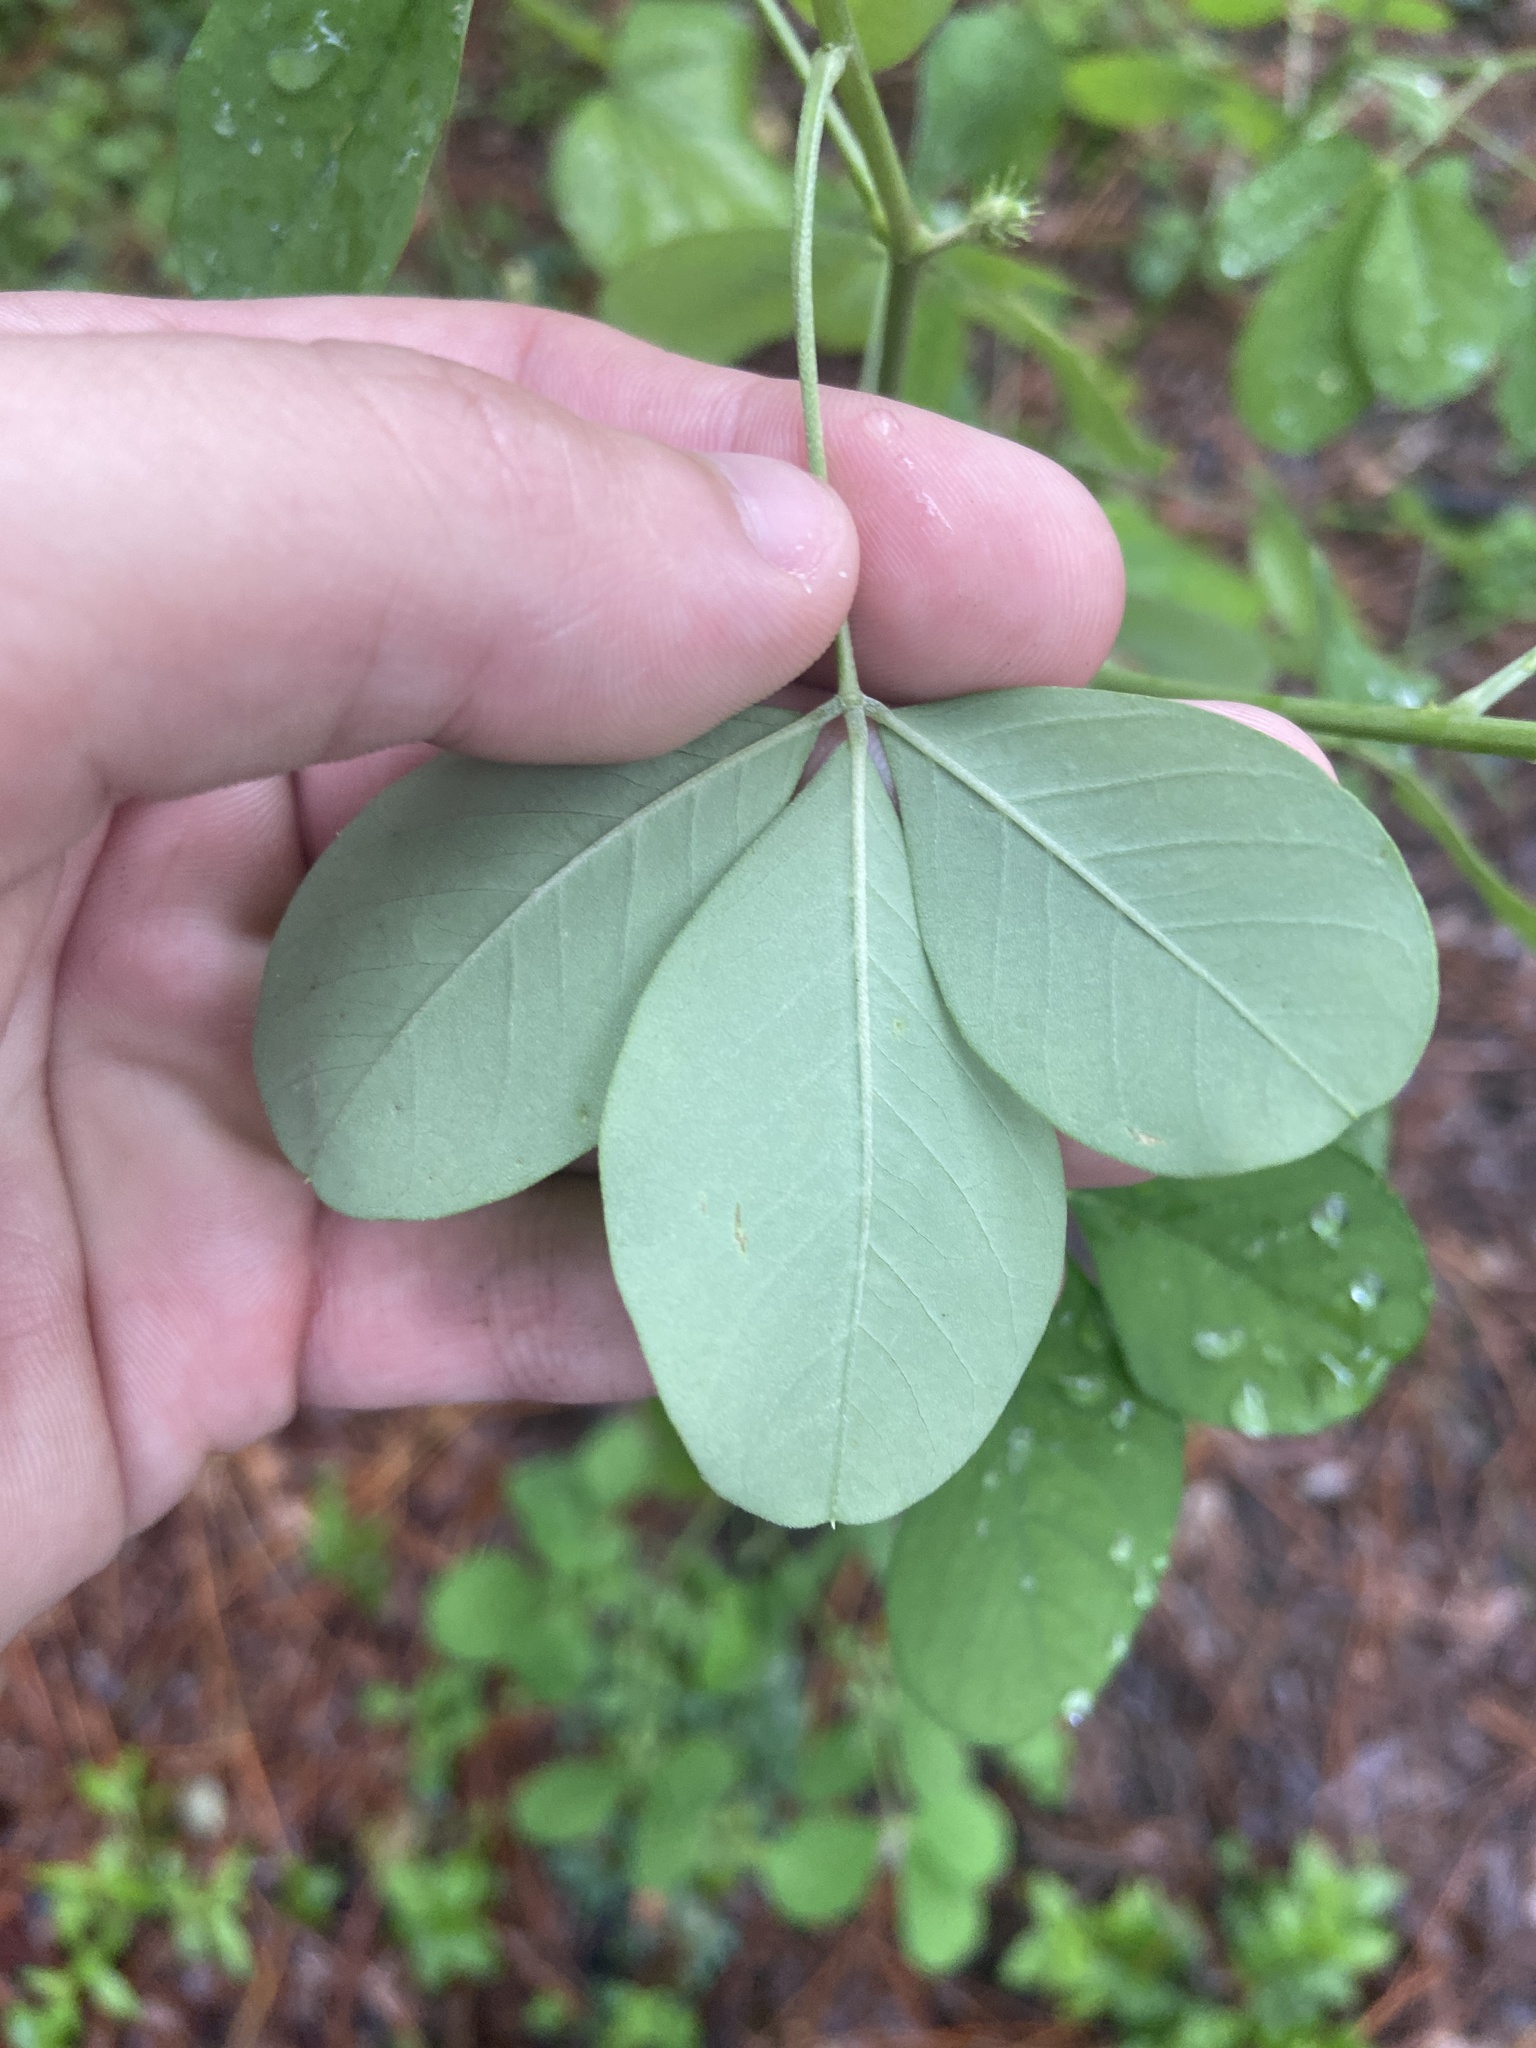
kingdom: Plantae
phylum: Tracheophyta
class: Magnoliopsida
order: Fabales
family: Fabaceae
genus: Crotalaria
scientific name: Crotalaria pallida
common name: Smooth rattlebox
